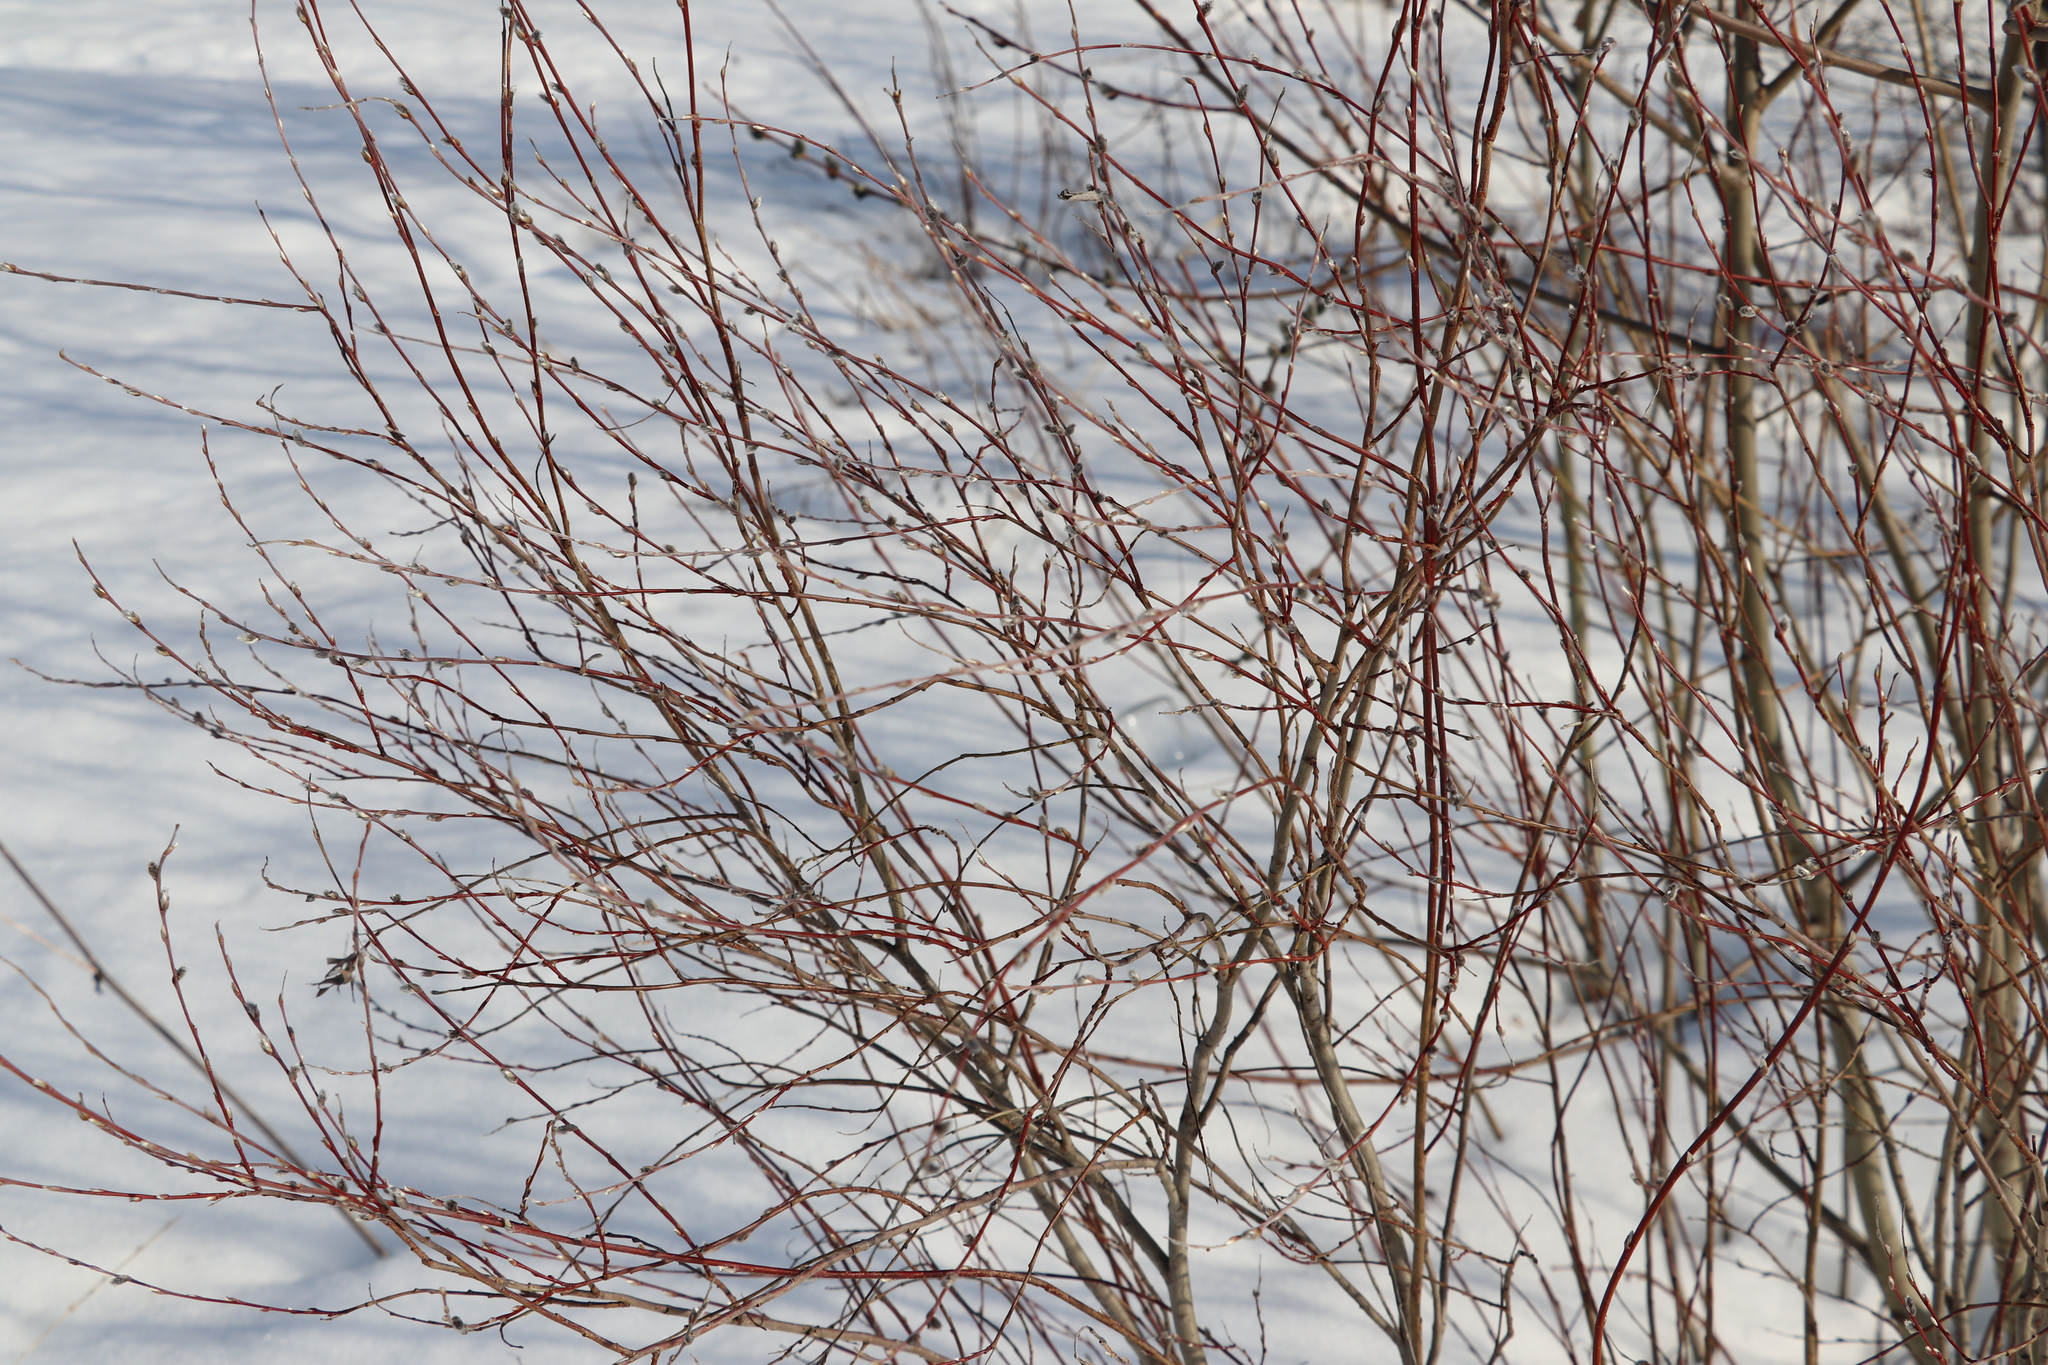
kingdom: Plantae
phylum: Tracheophyta
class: Magnoliopsida
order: Malpighiales
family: Salicaceae
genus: Salix
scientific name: Salix myrtilloides
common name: Myrtle-leaved willow
